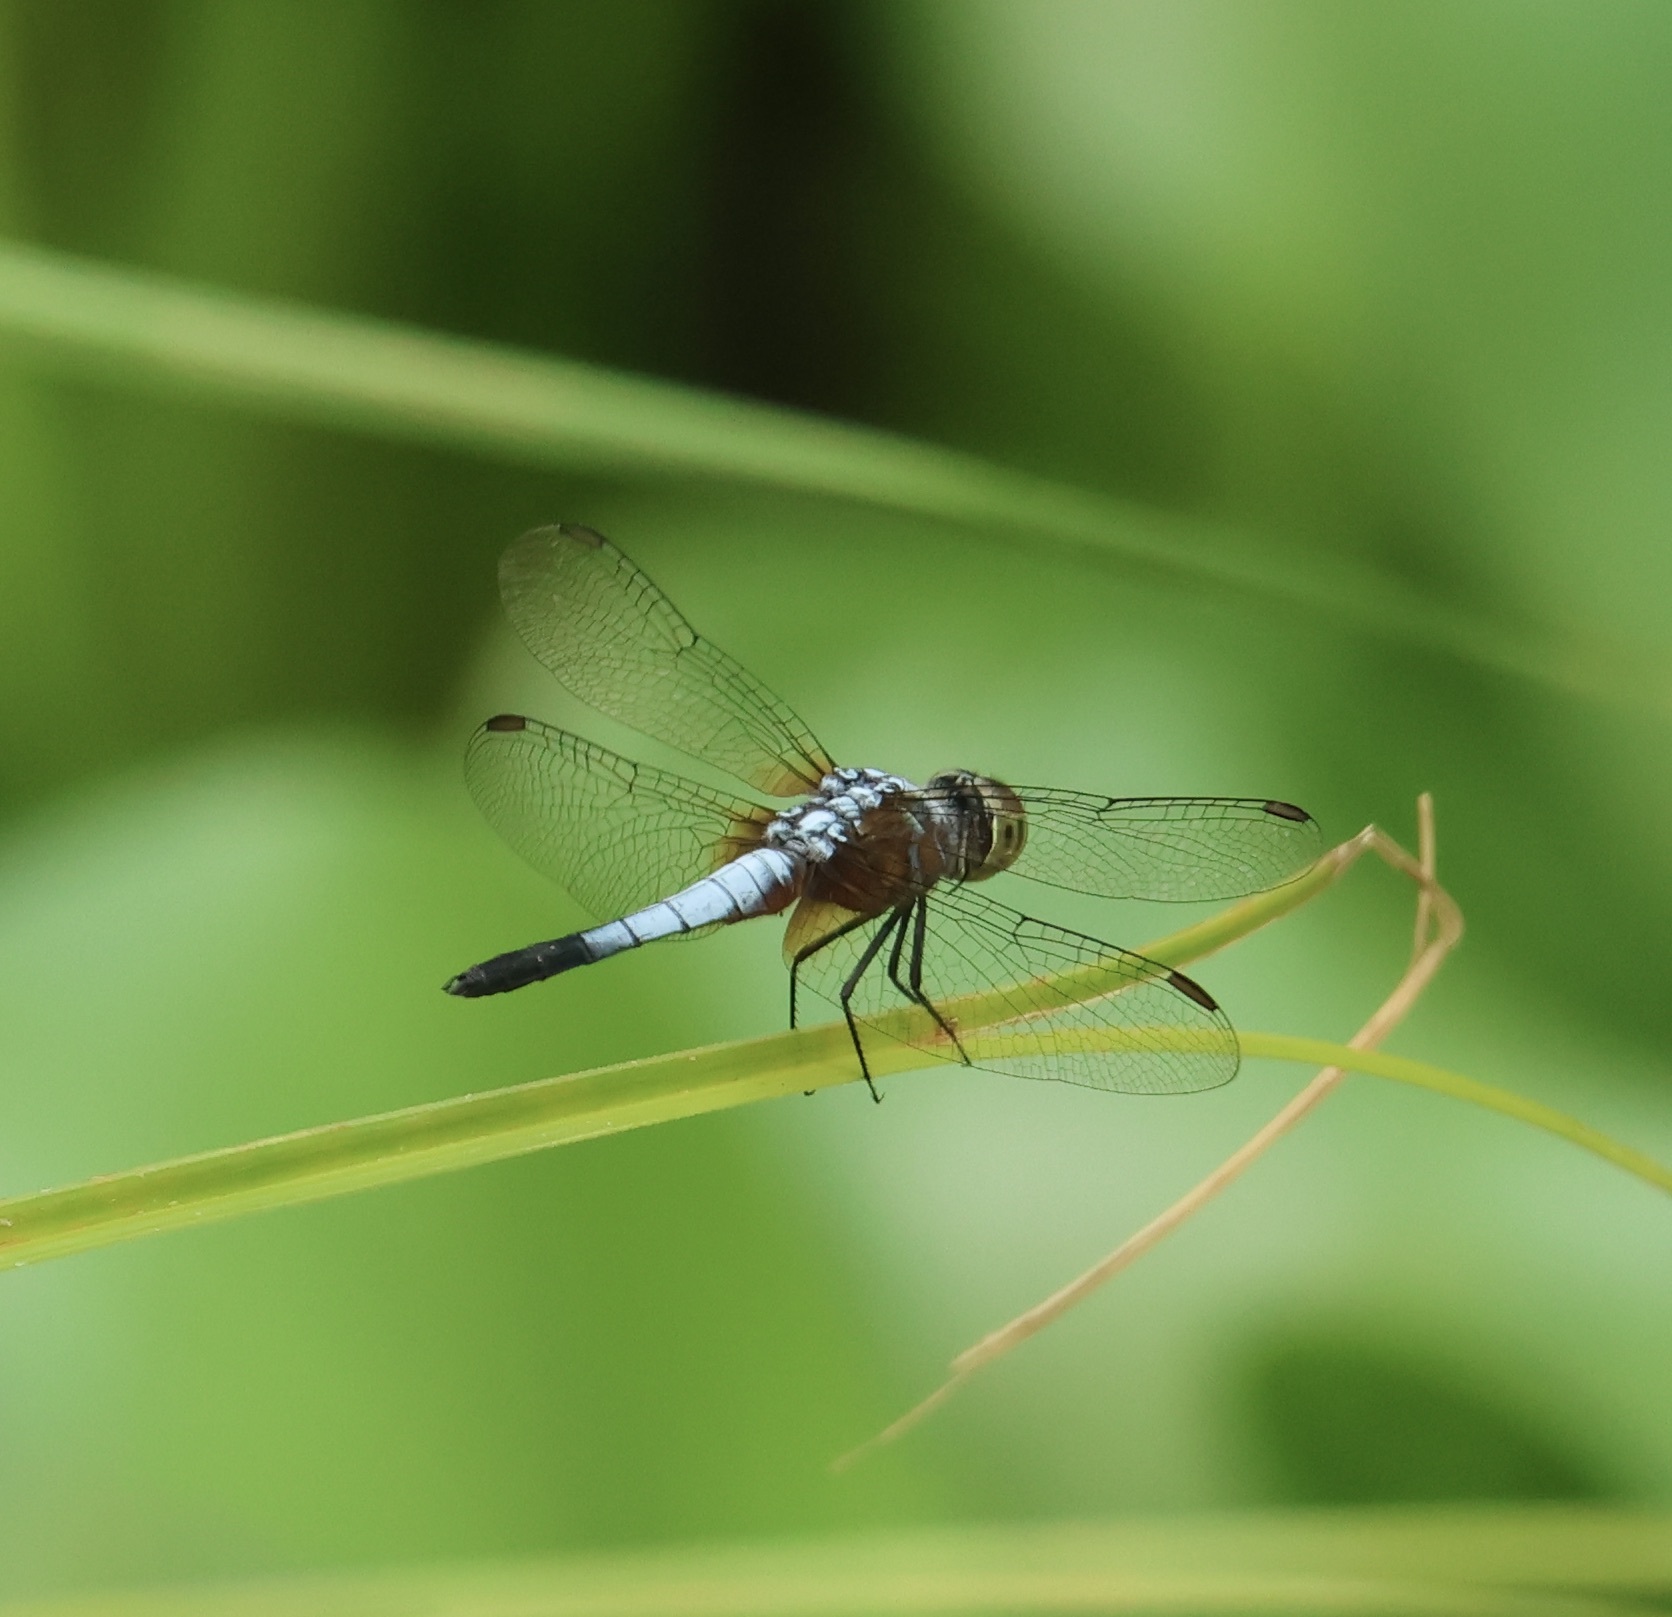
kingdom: Animalia
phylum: Arthropoda
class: Insecta
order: Odonata
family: Libellulidae
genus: Brachydiplax
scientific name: Brachydiplax chalybea
